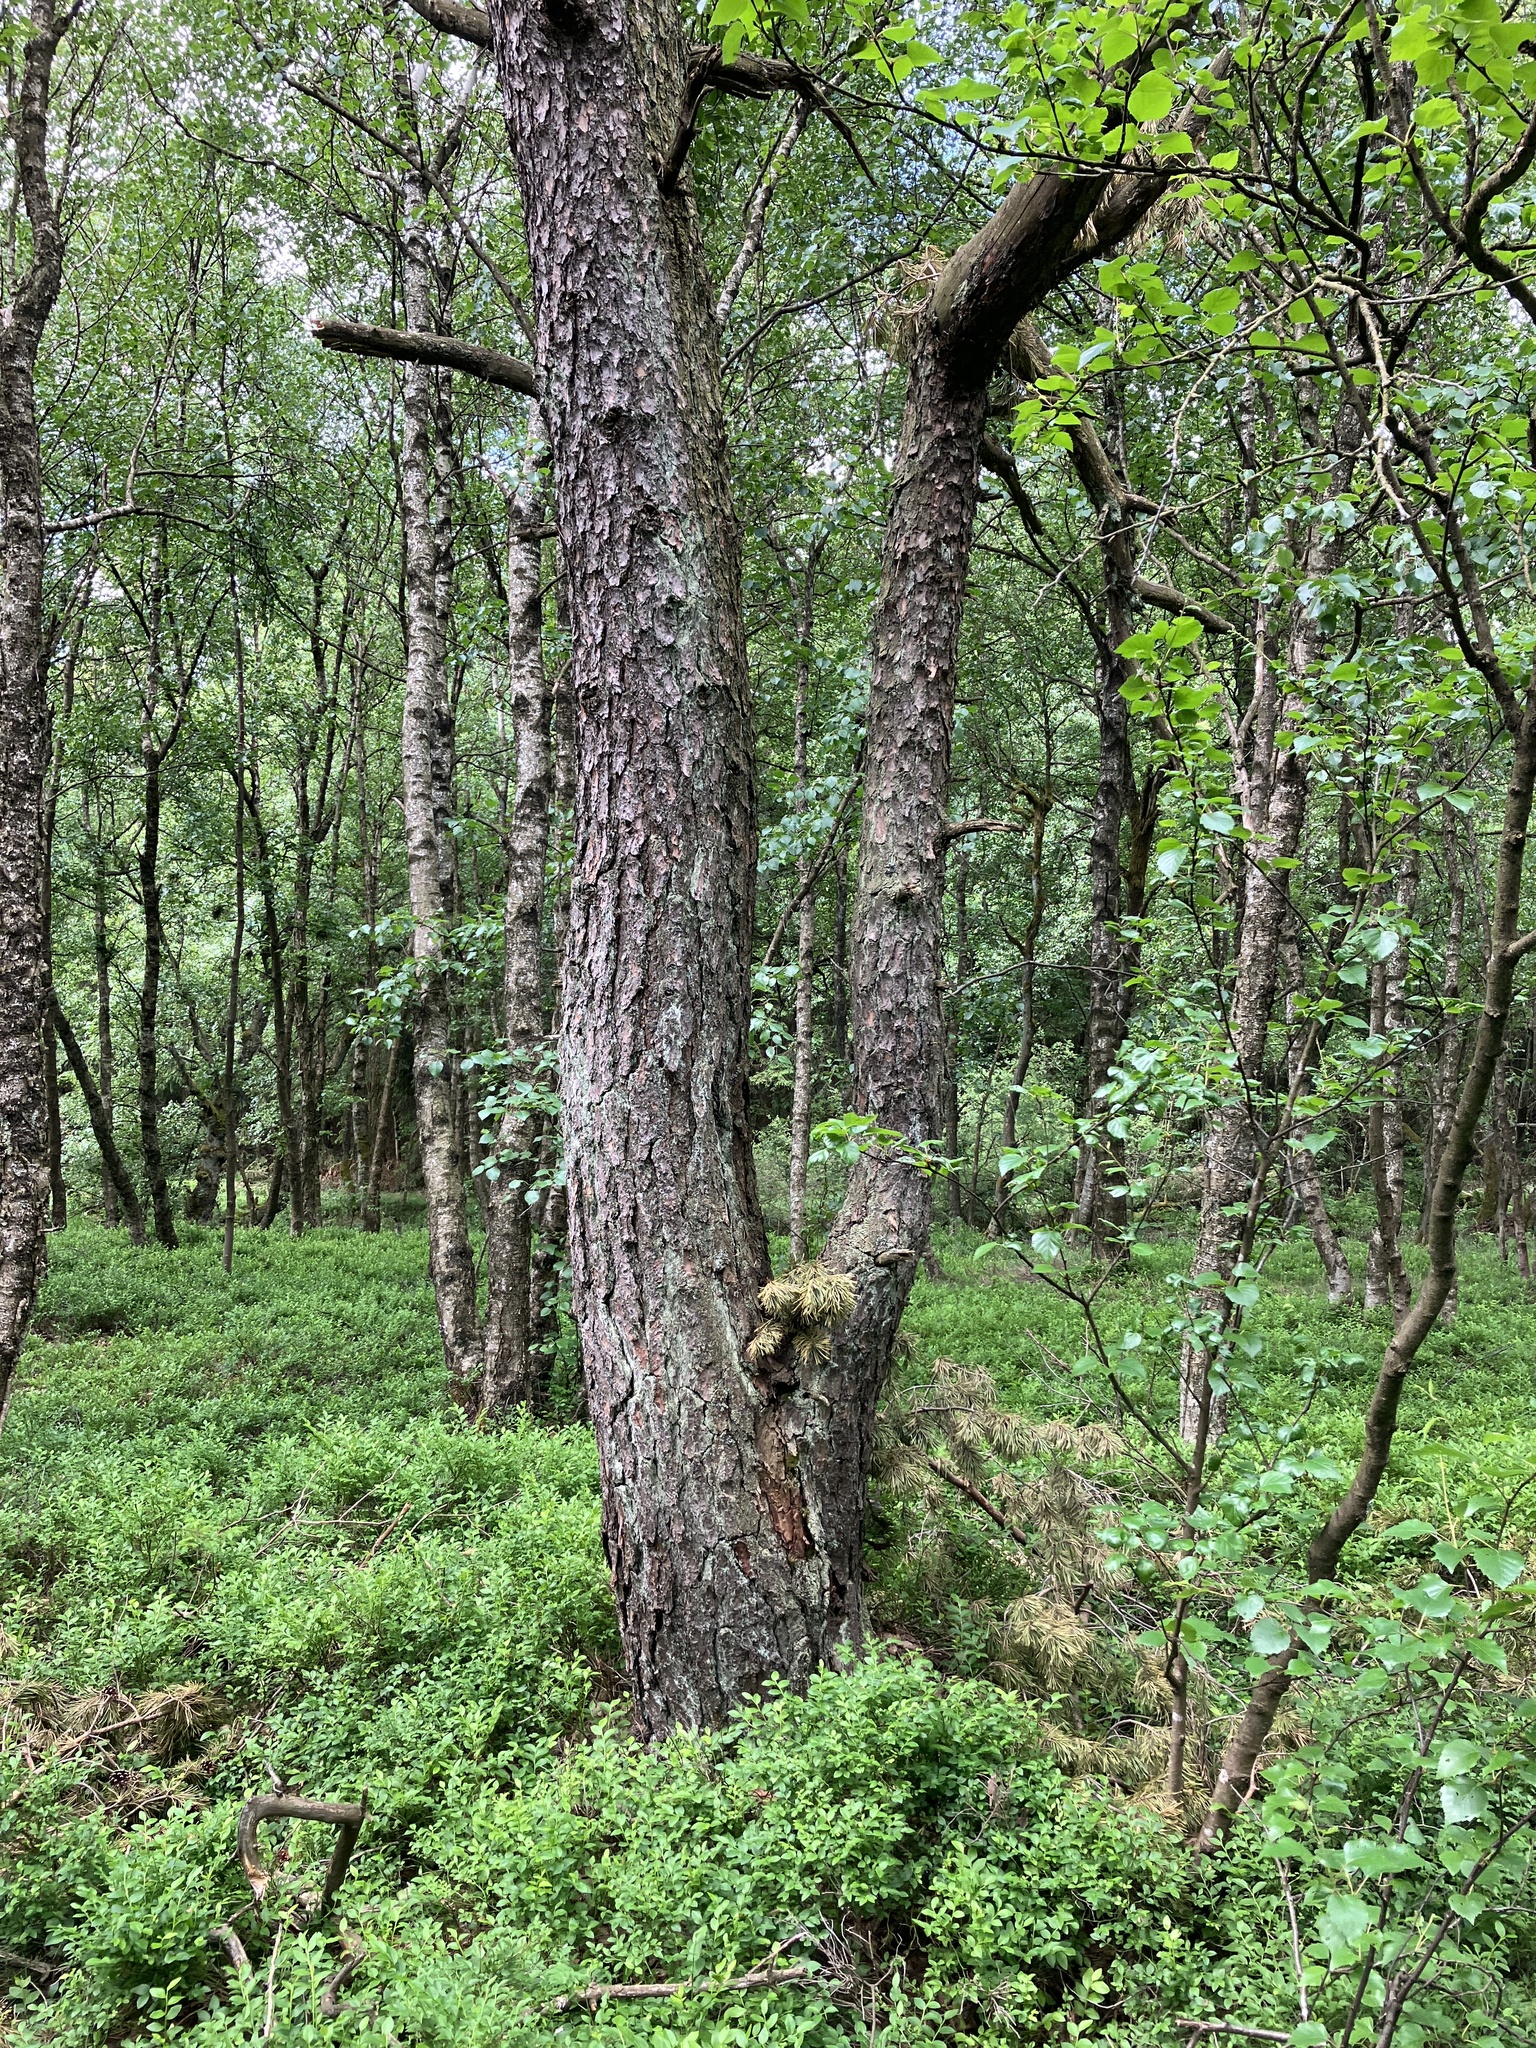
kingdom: Plantae
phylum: Tracheophyta
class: Pinopsida
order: Pinales
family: Pinaceae
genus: Pinus
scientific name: Pinus sylvestris
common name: Scots pine
